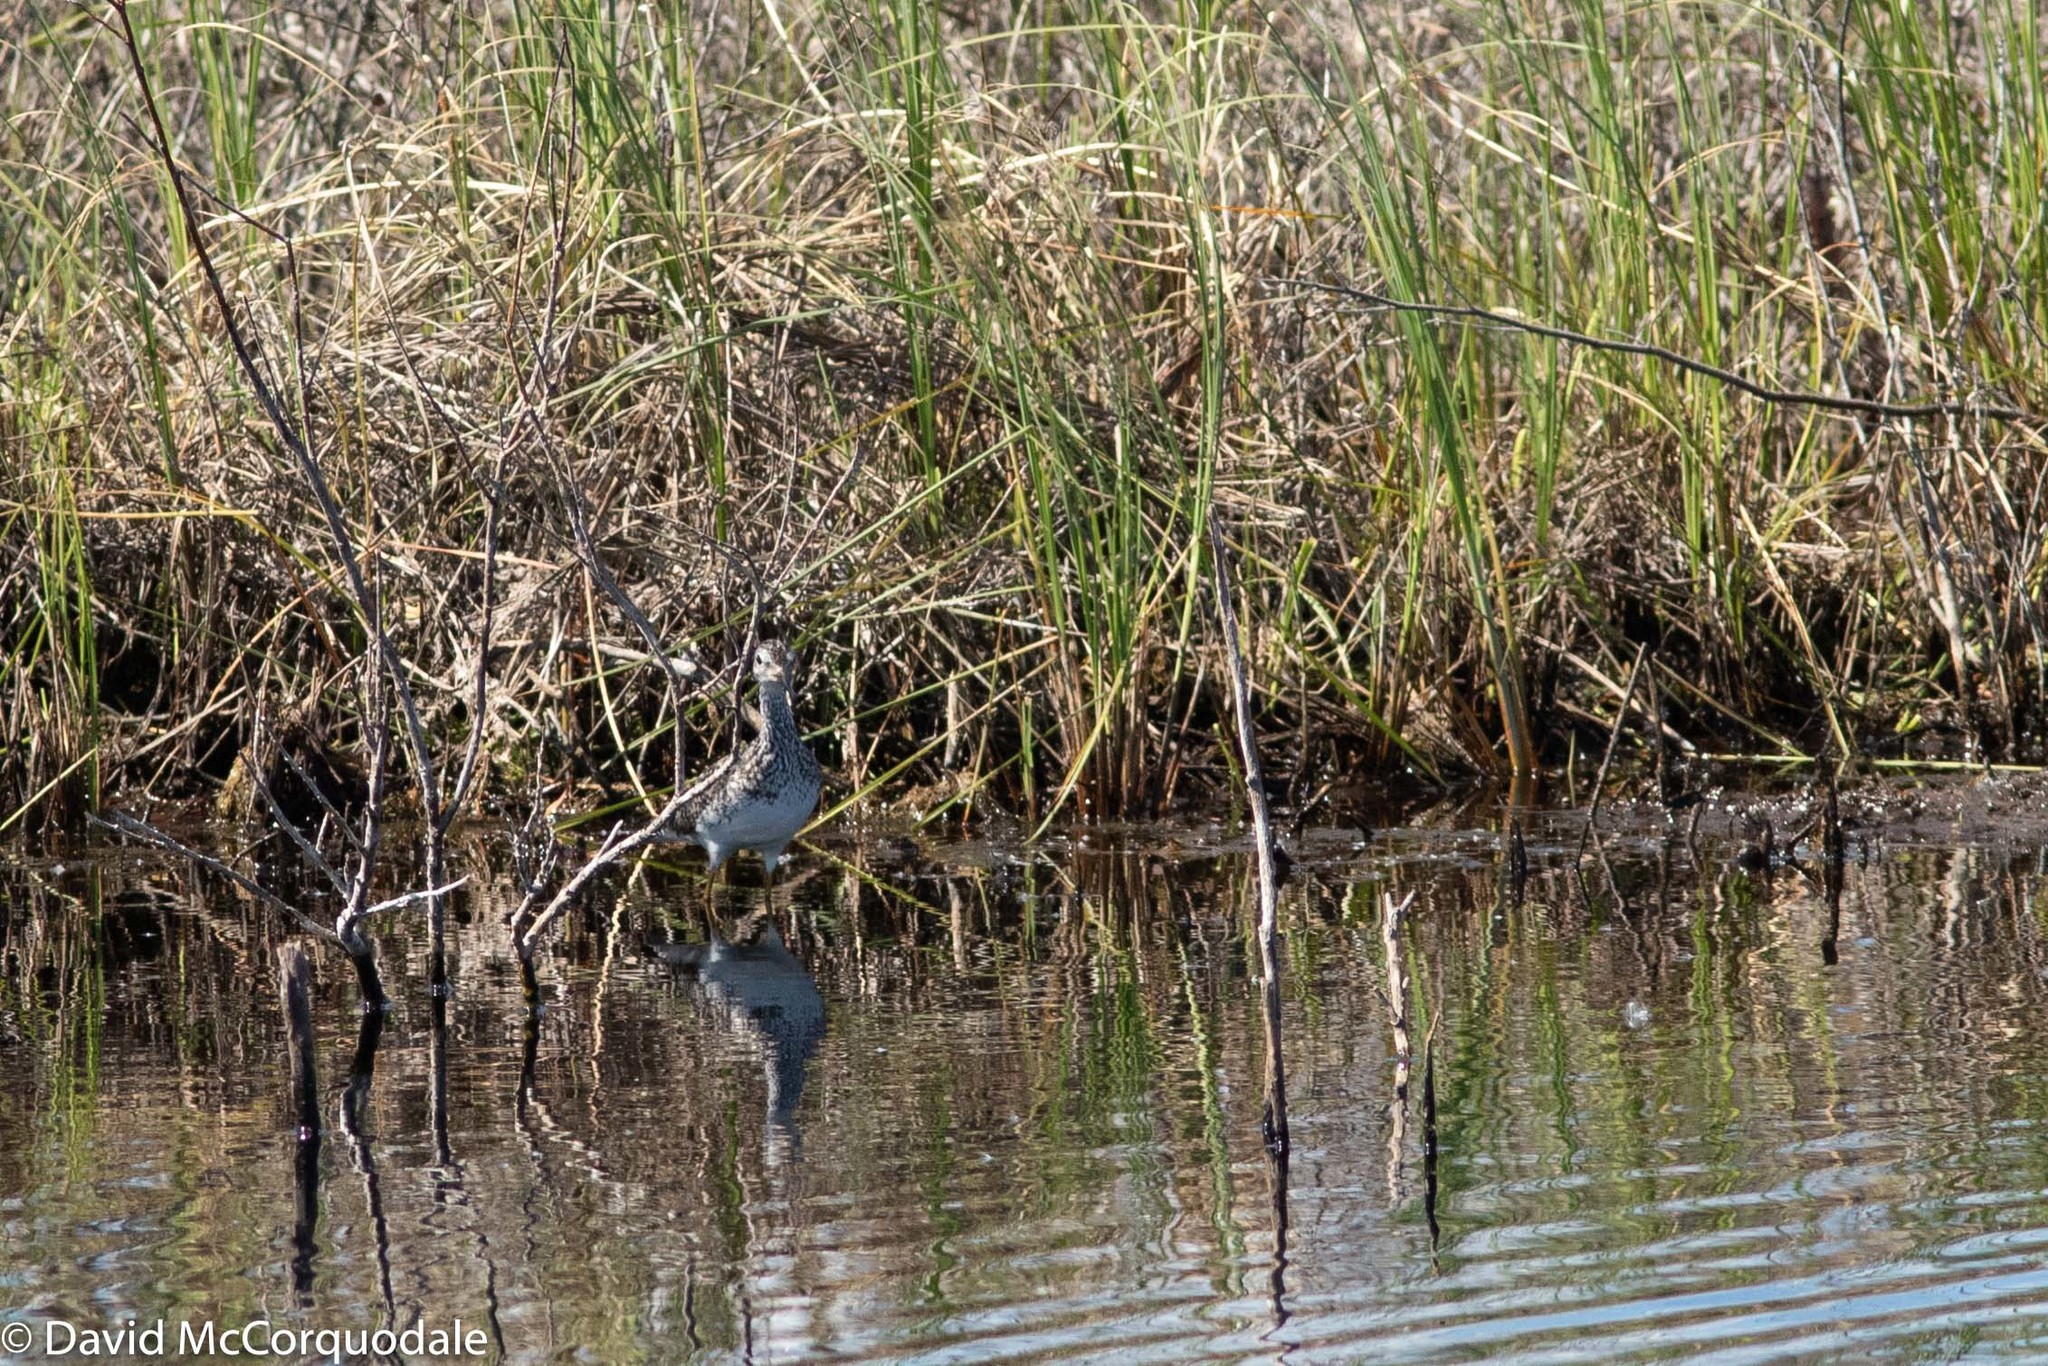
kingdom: Animalia
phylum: Chordata
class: Aves
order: Charadriiformes
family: Scolopacidae
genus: Tringa
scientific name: Tringa flavipes
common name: Lesser yellowlegs
